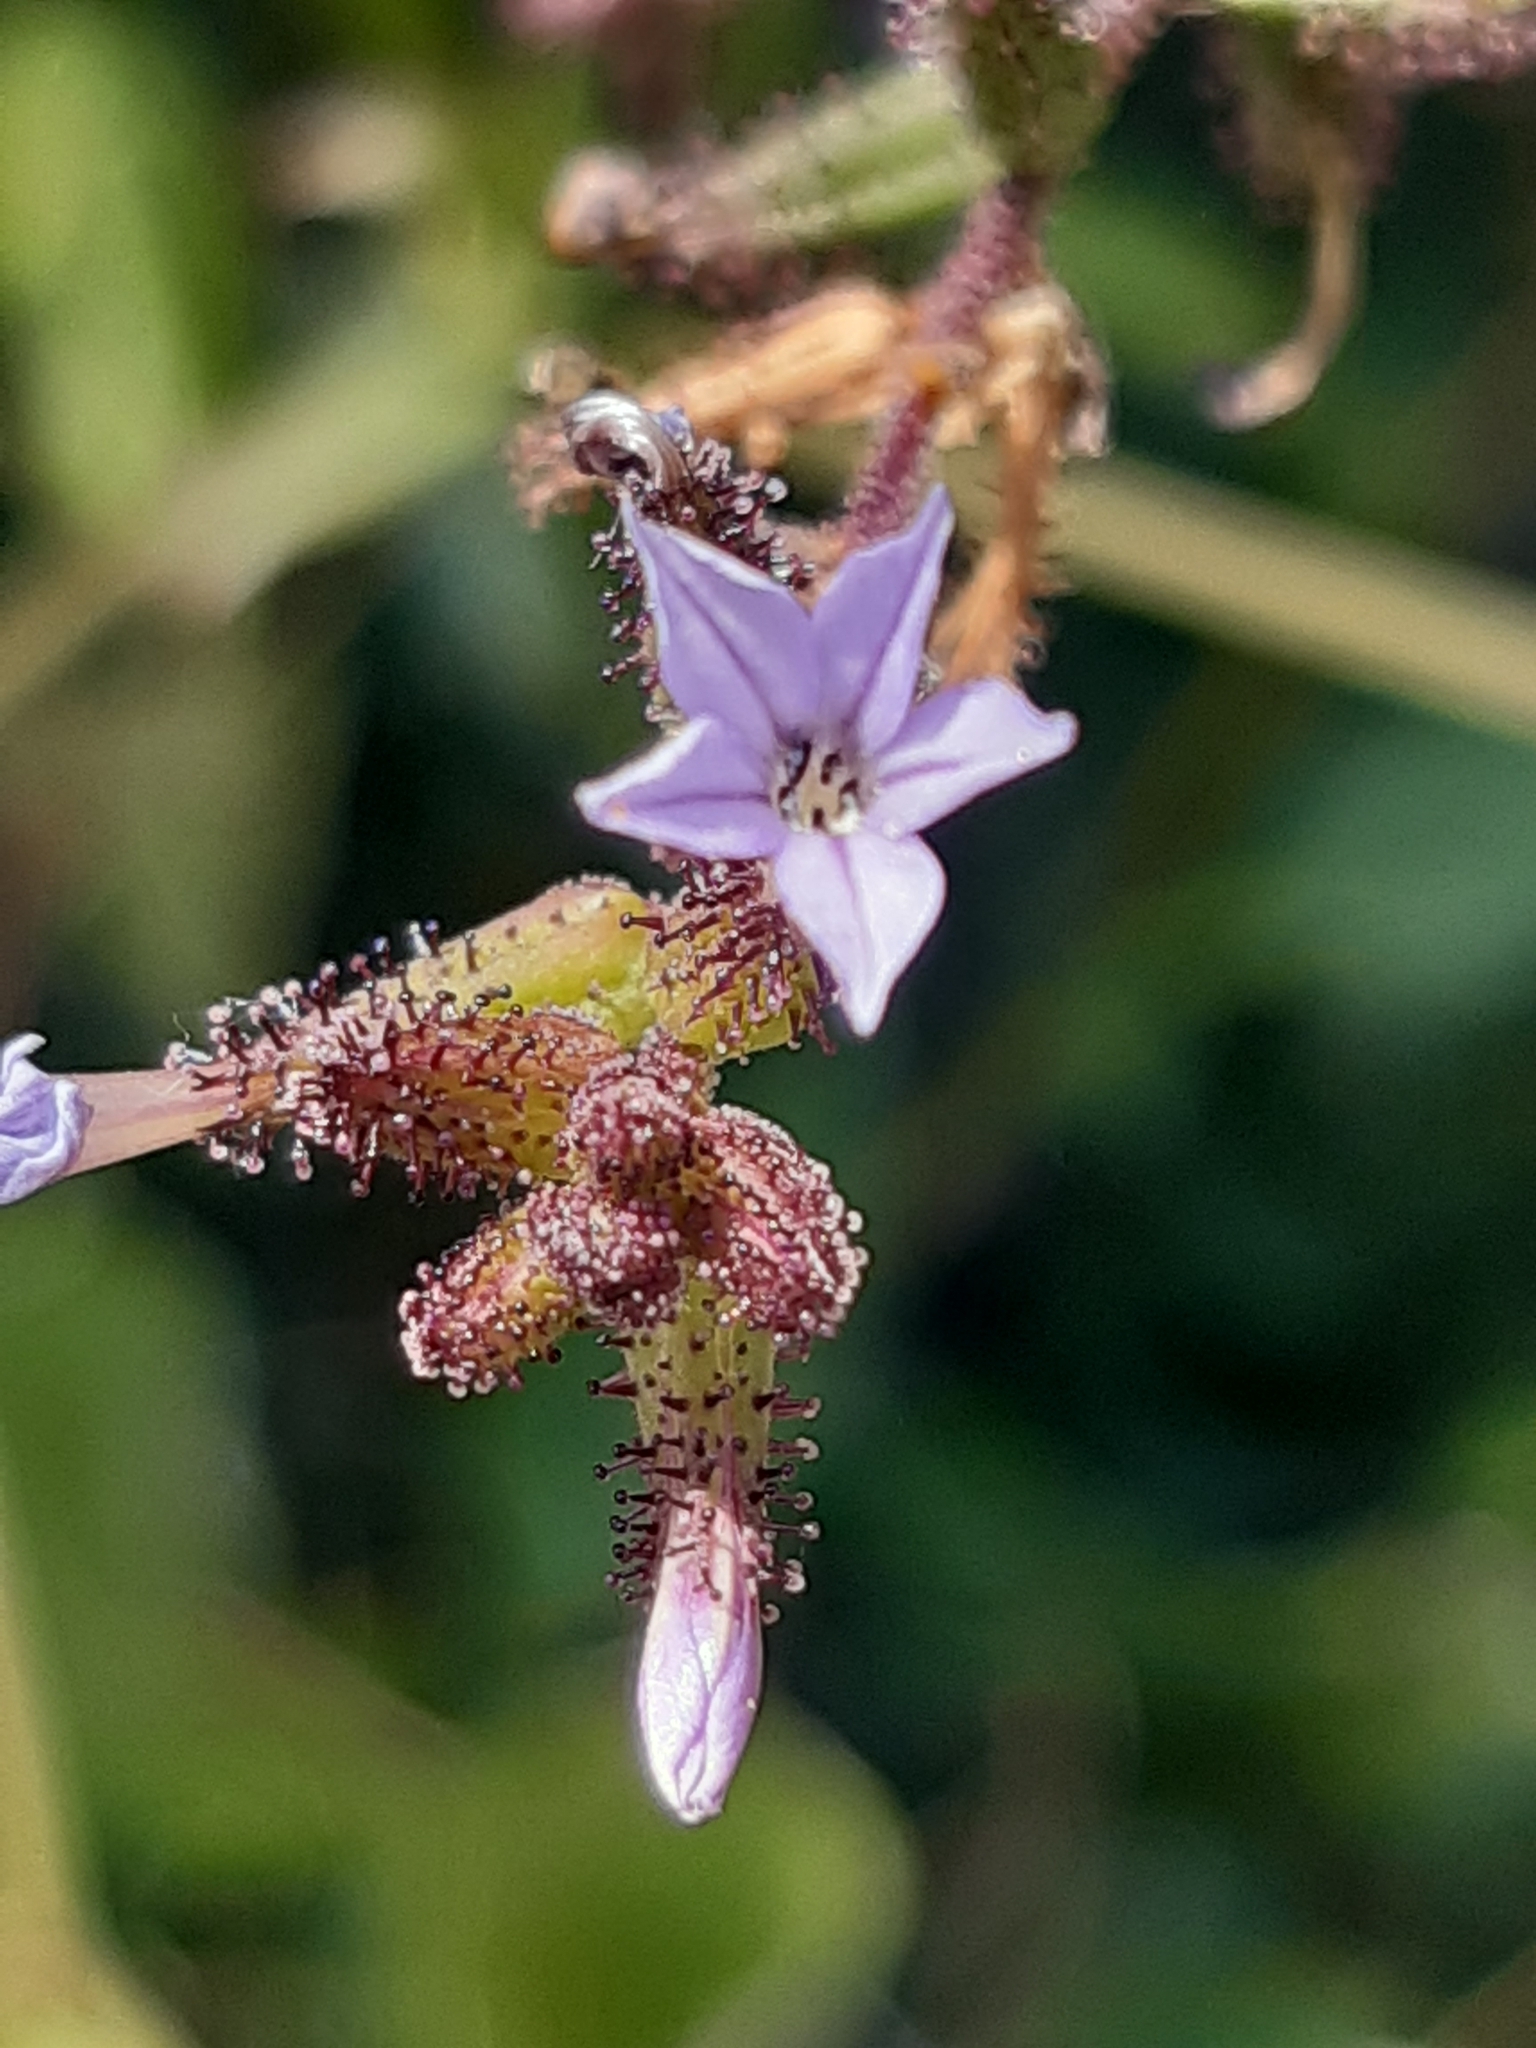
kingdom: Plantae
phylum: Tracheophyta
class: Magnoliopsida
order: Caryophyllales
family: Plumbaginaceae
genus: Plumbago
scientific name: Plumbago pulchella
